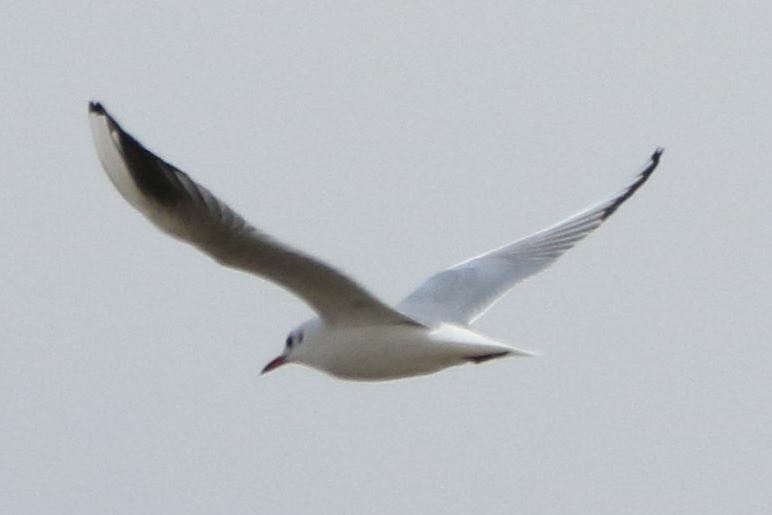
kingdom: Animalia
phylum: Chordata
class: Aves
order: Charadriiformes
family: Laridae
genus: Chroicocephalus
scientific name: Chroicocephalus ridibundus
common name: Black-headed gull
